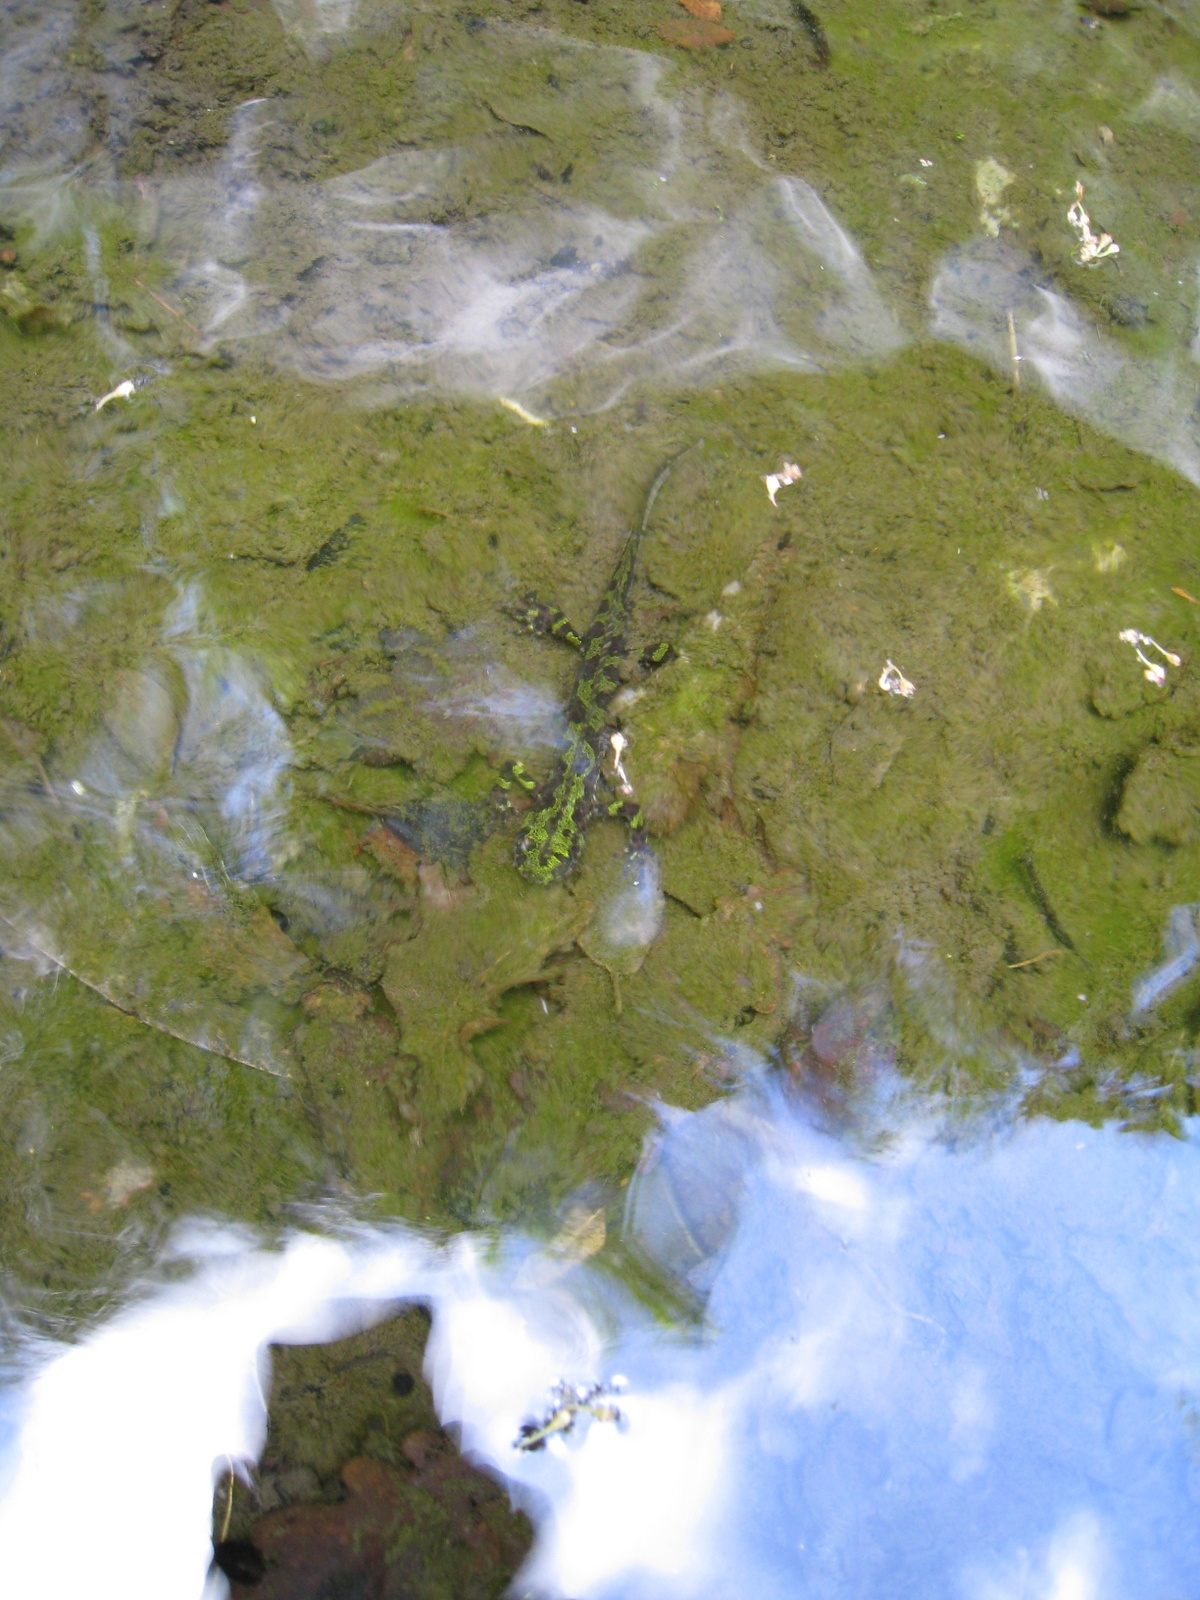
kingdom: Animalia
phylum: Chordata
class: Amphibia
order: Caudata
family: Salamandridae
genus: Triturus
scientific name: Triturus marmoratus
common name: Marbled newt
